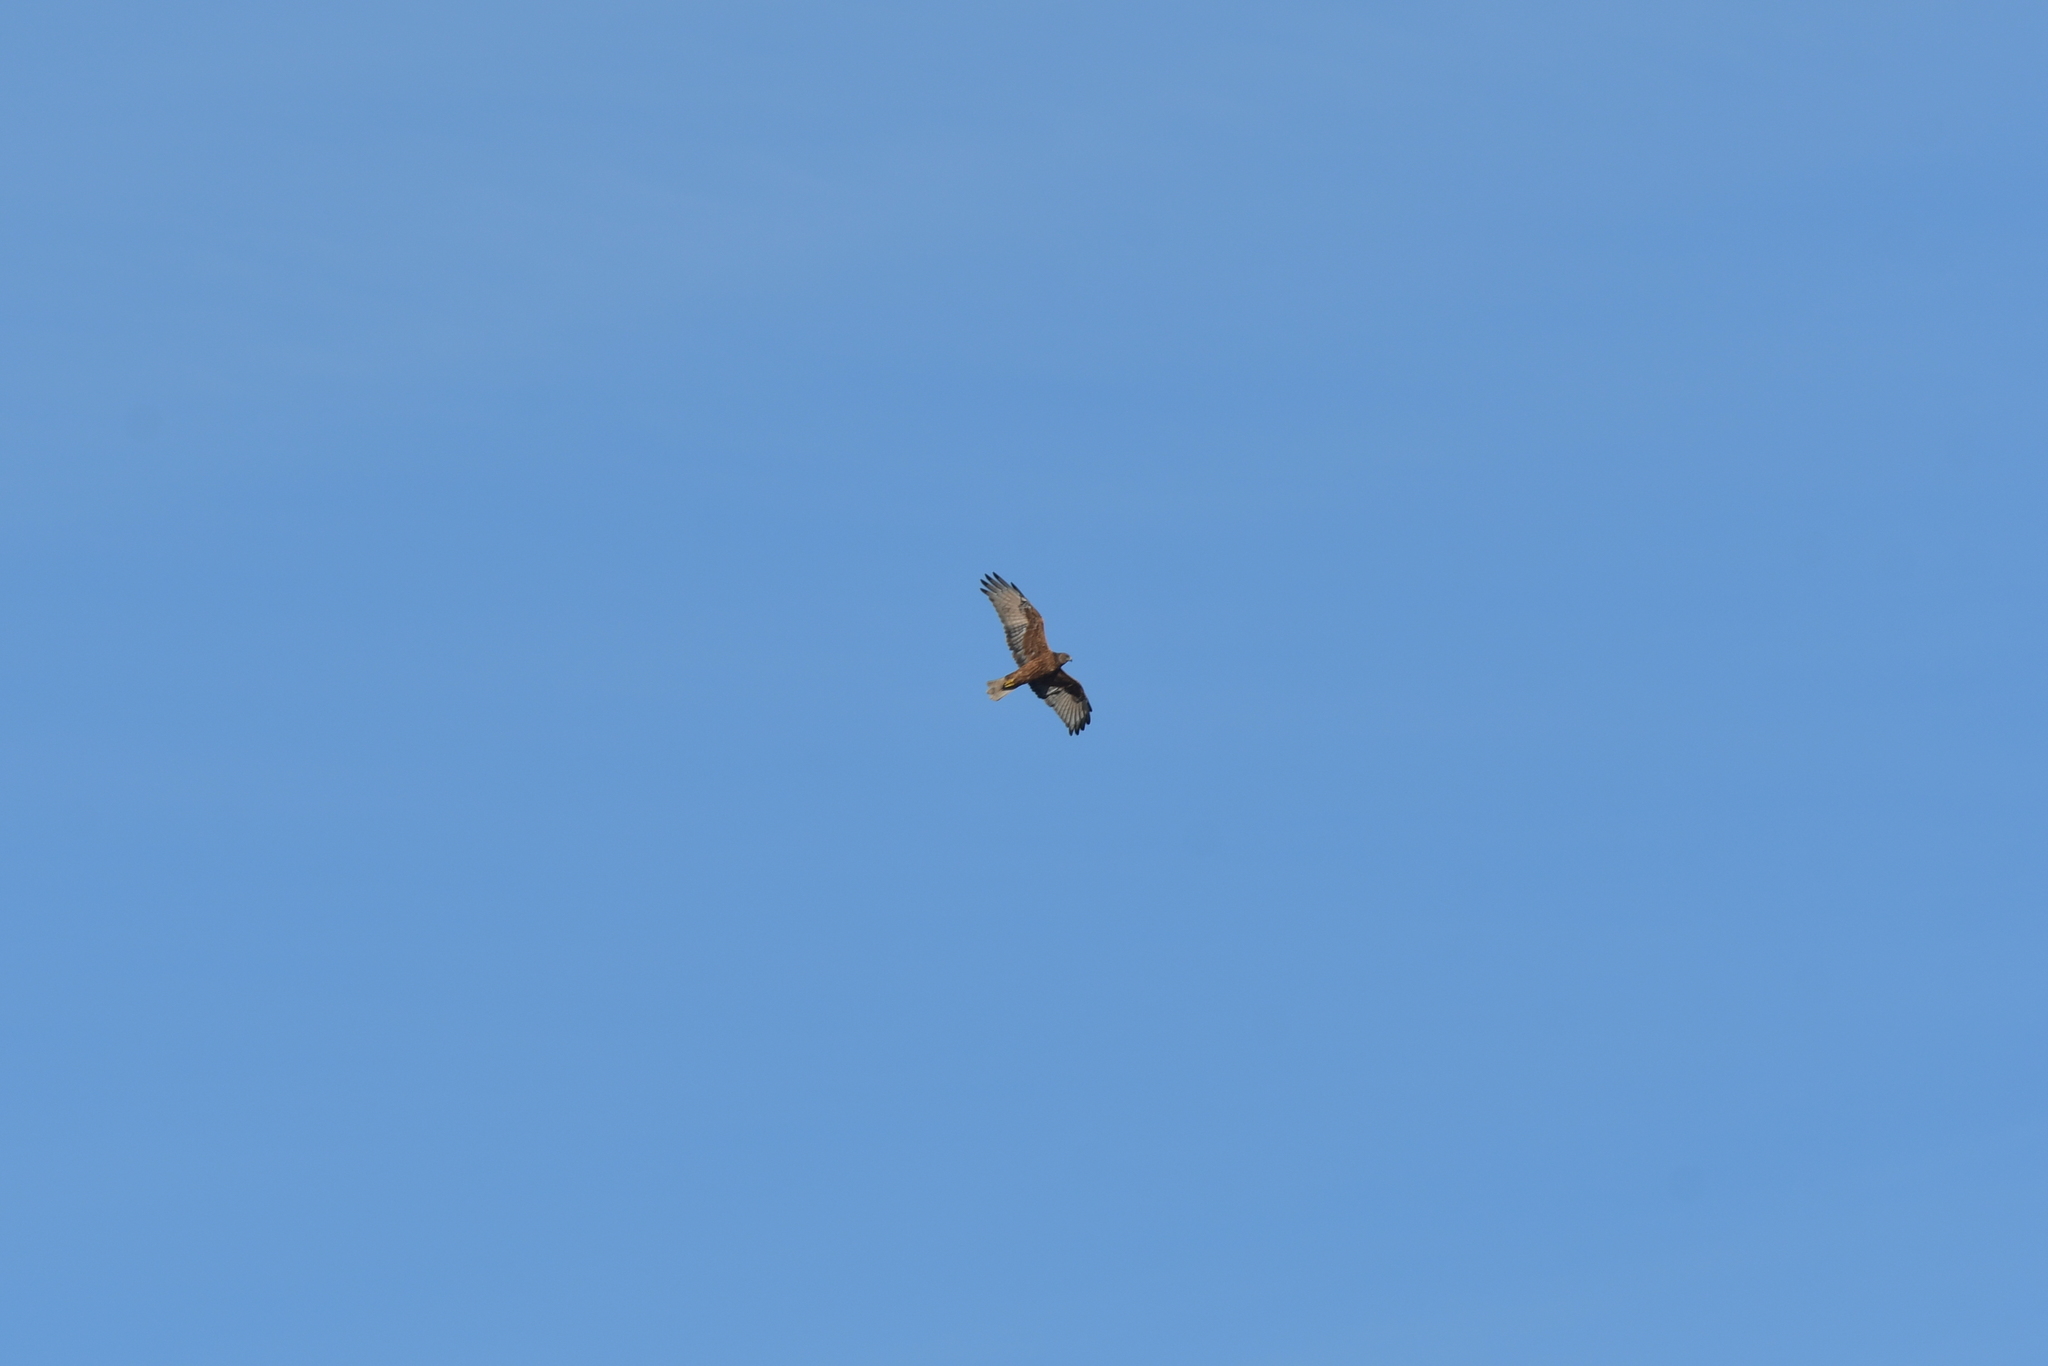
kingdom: Animalia
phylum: Chordata
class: Aves
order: Accipitriformes
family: Accipitridae
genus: Circus
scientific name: Circus approximans
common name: Swamp harrier
